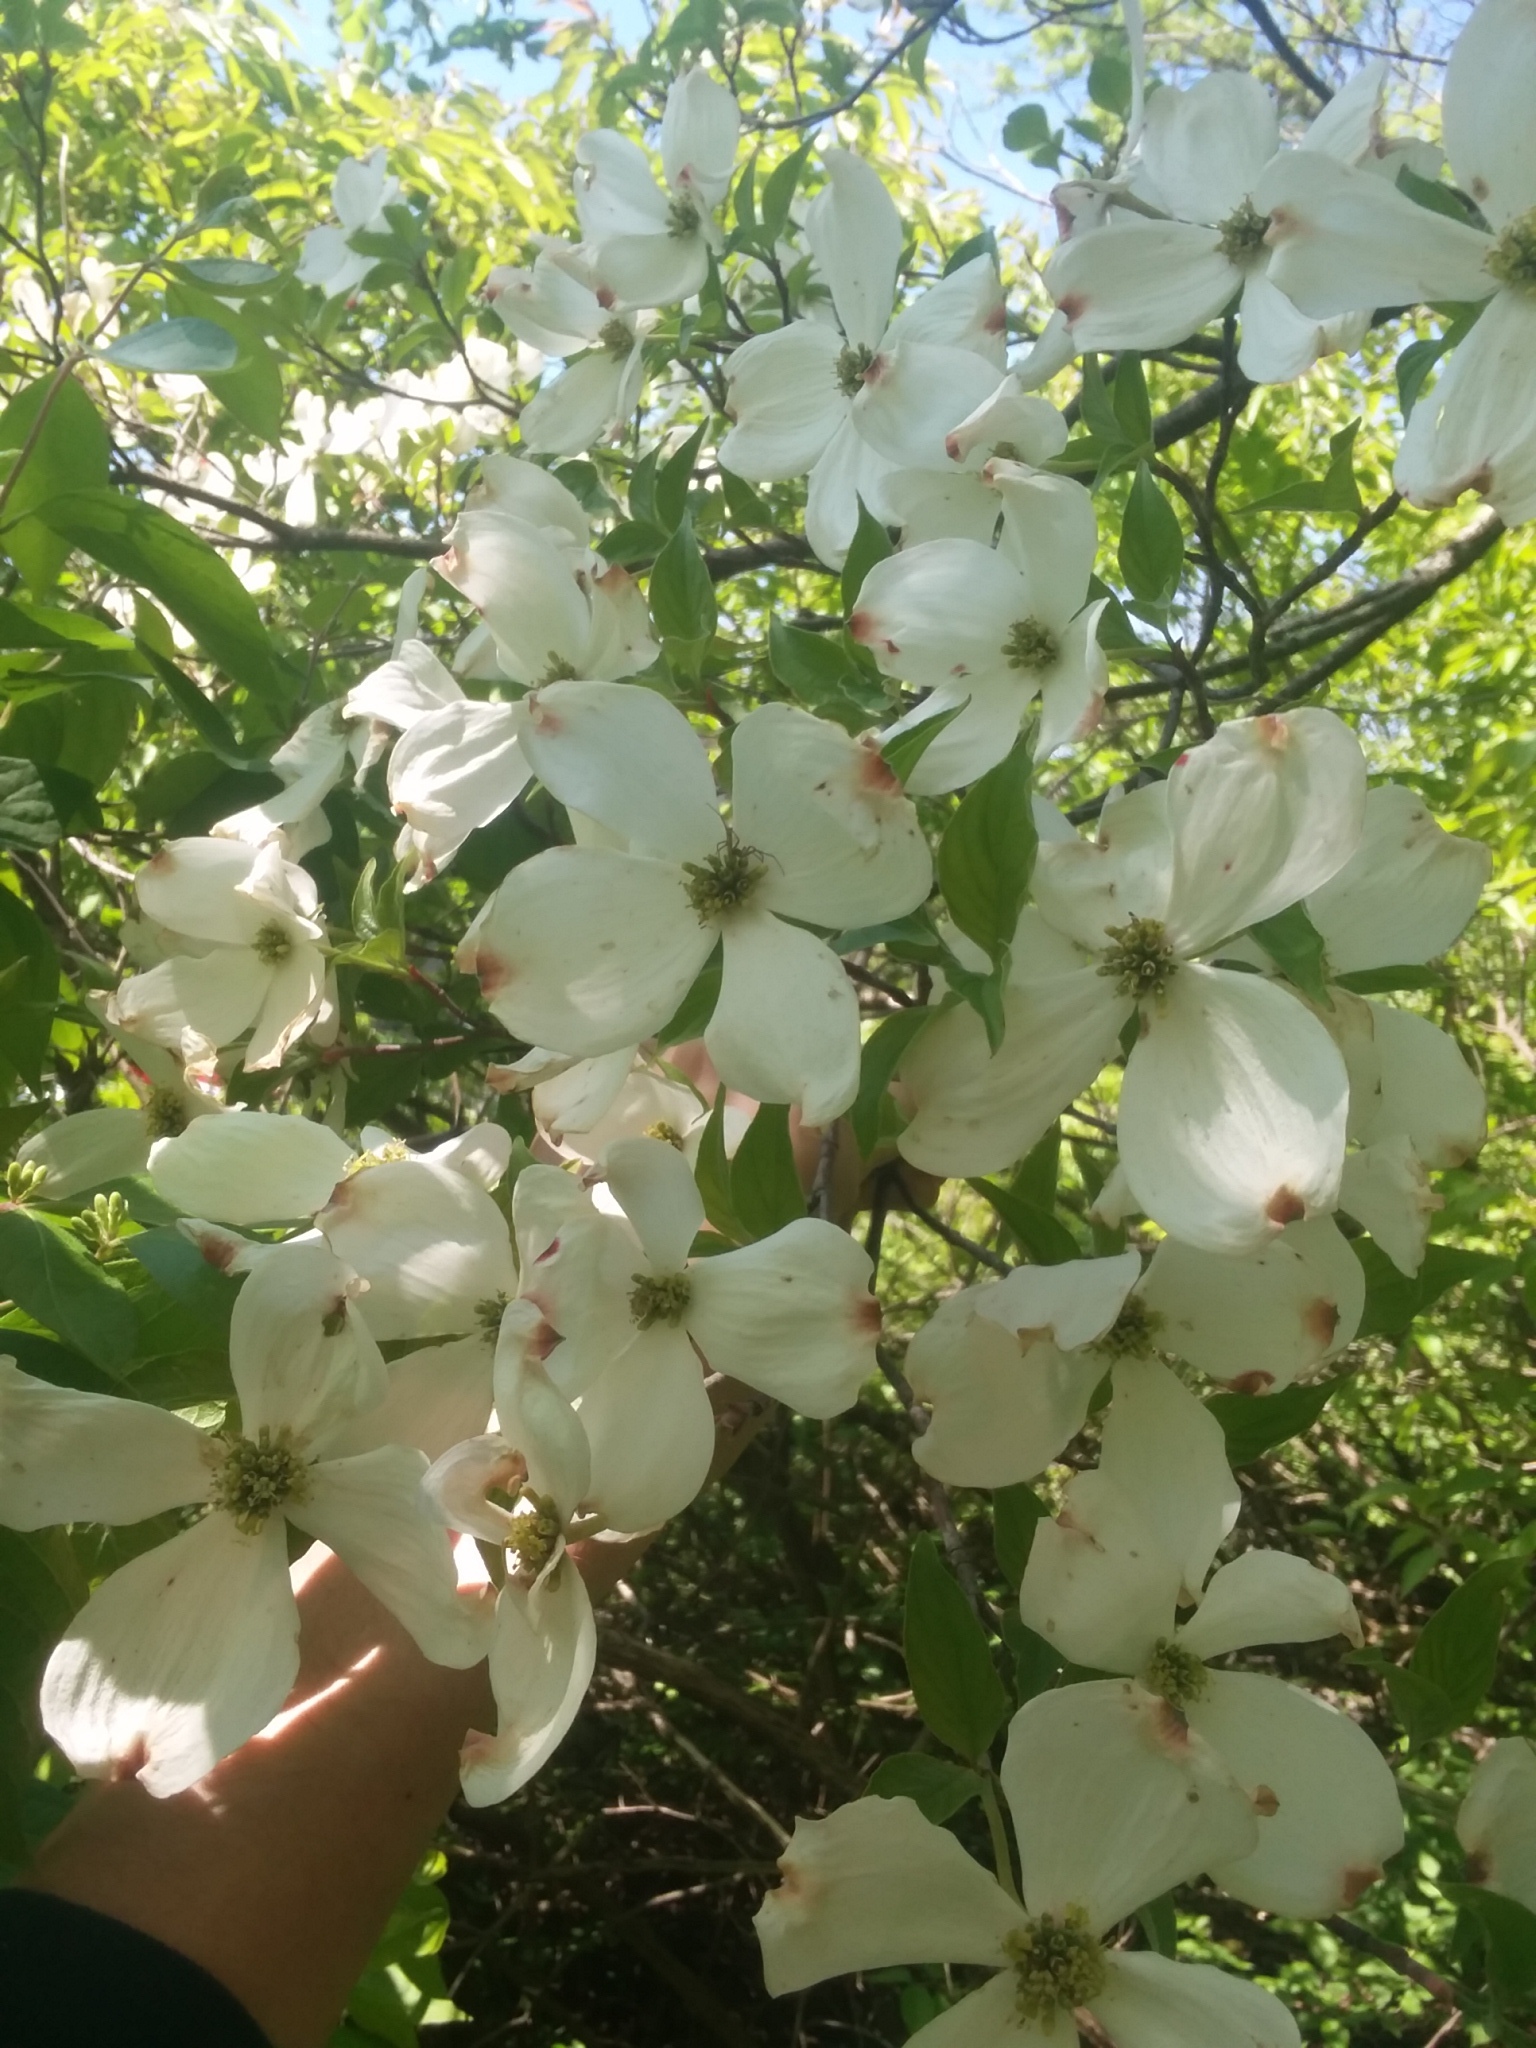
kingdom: Plantae
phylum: Tracheophyta
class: Magnoliopsida
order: Cornales
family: Cornaceae
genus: Cornus
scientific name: Cornus florida
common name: Flowering dogwood
